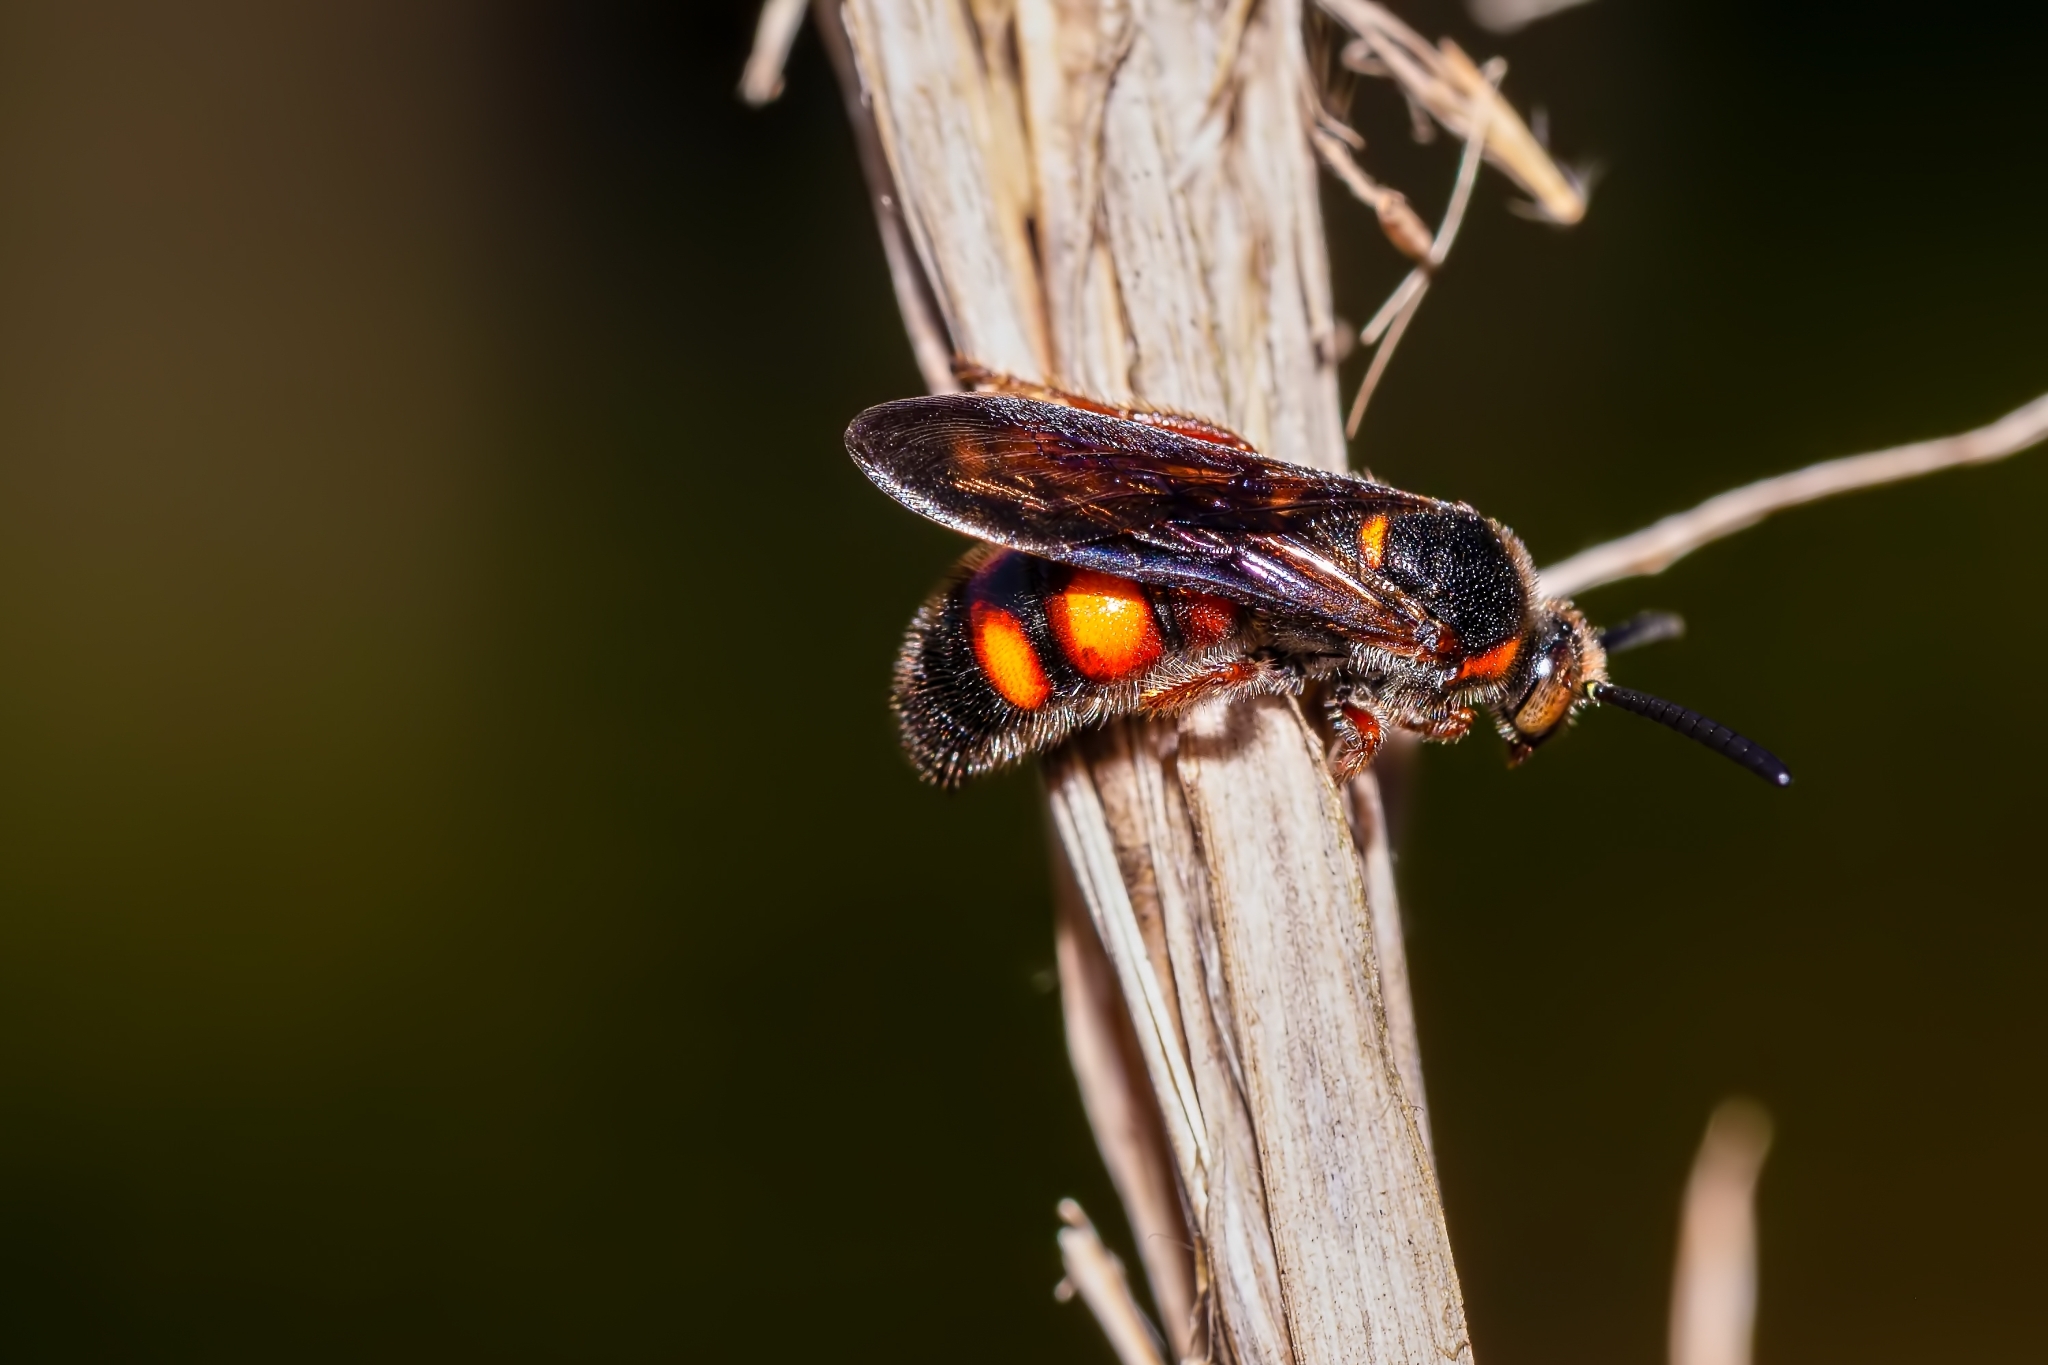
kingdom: Animalia
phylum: Arthropoda
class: Insecta
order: Hymenoptera
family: Scoliidae
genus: Scolia
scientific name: Scolia nobilitata
